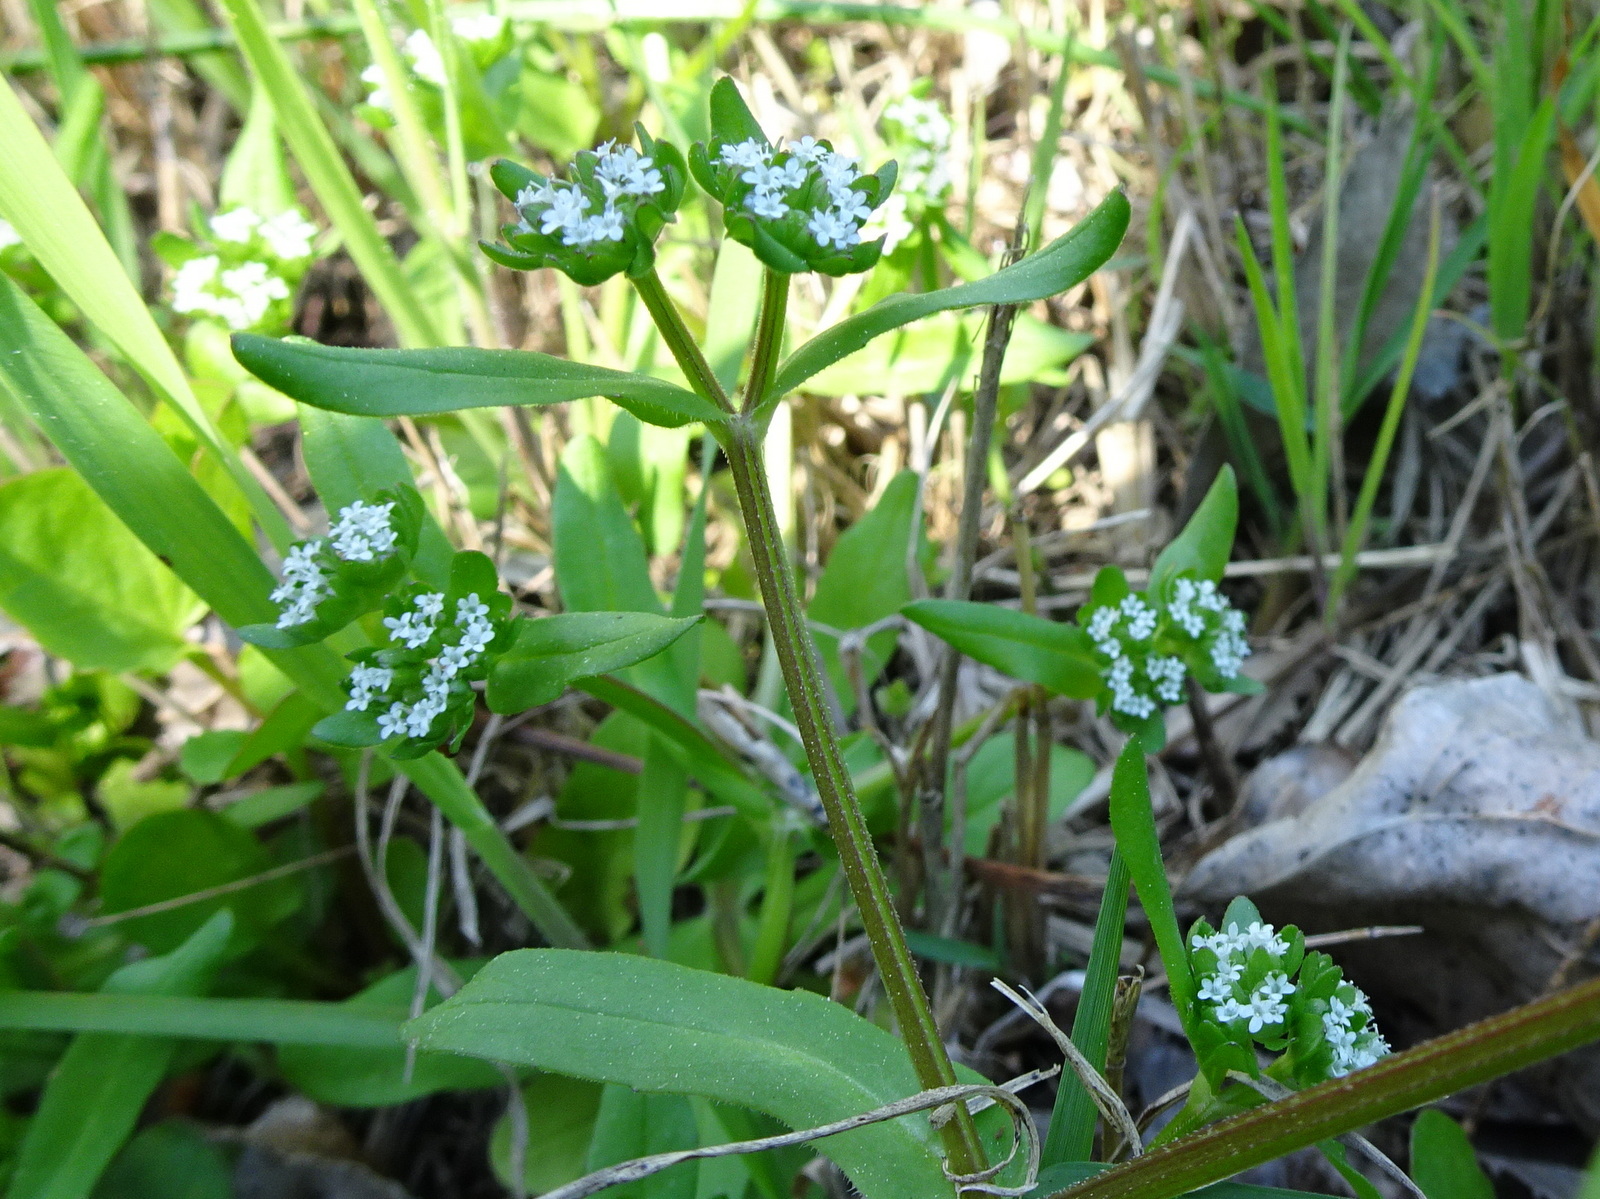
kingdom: Plantae
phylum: Tracheophyta
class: Magnoliopsida
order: Dipsacales
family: Caprifoliaceae
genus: Valerianella
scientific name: Valerianella locusta
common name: Common cornsalad
